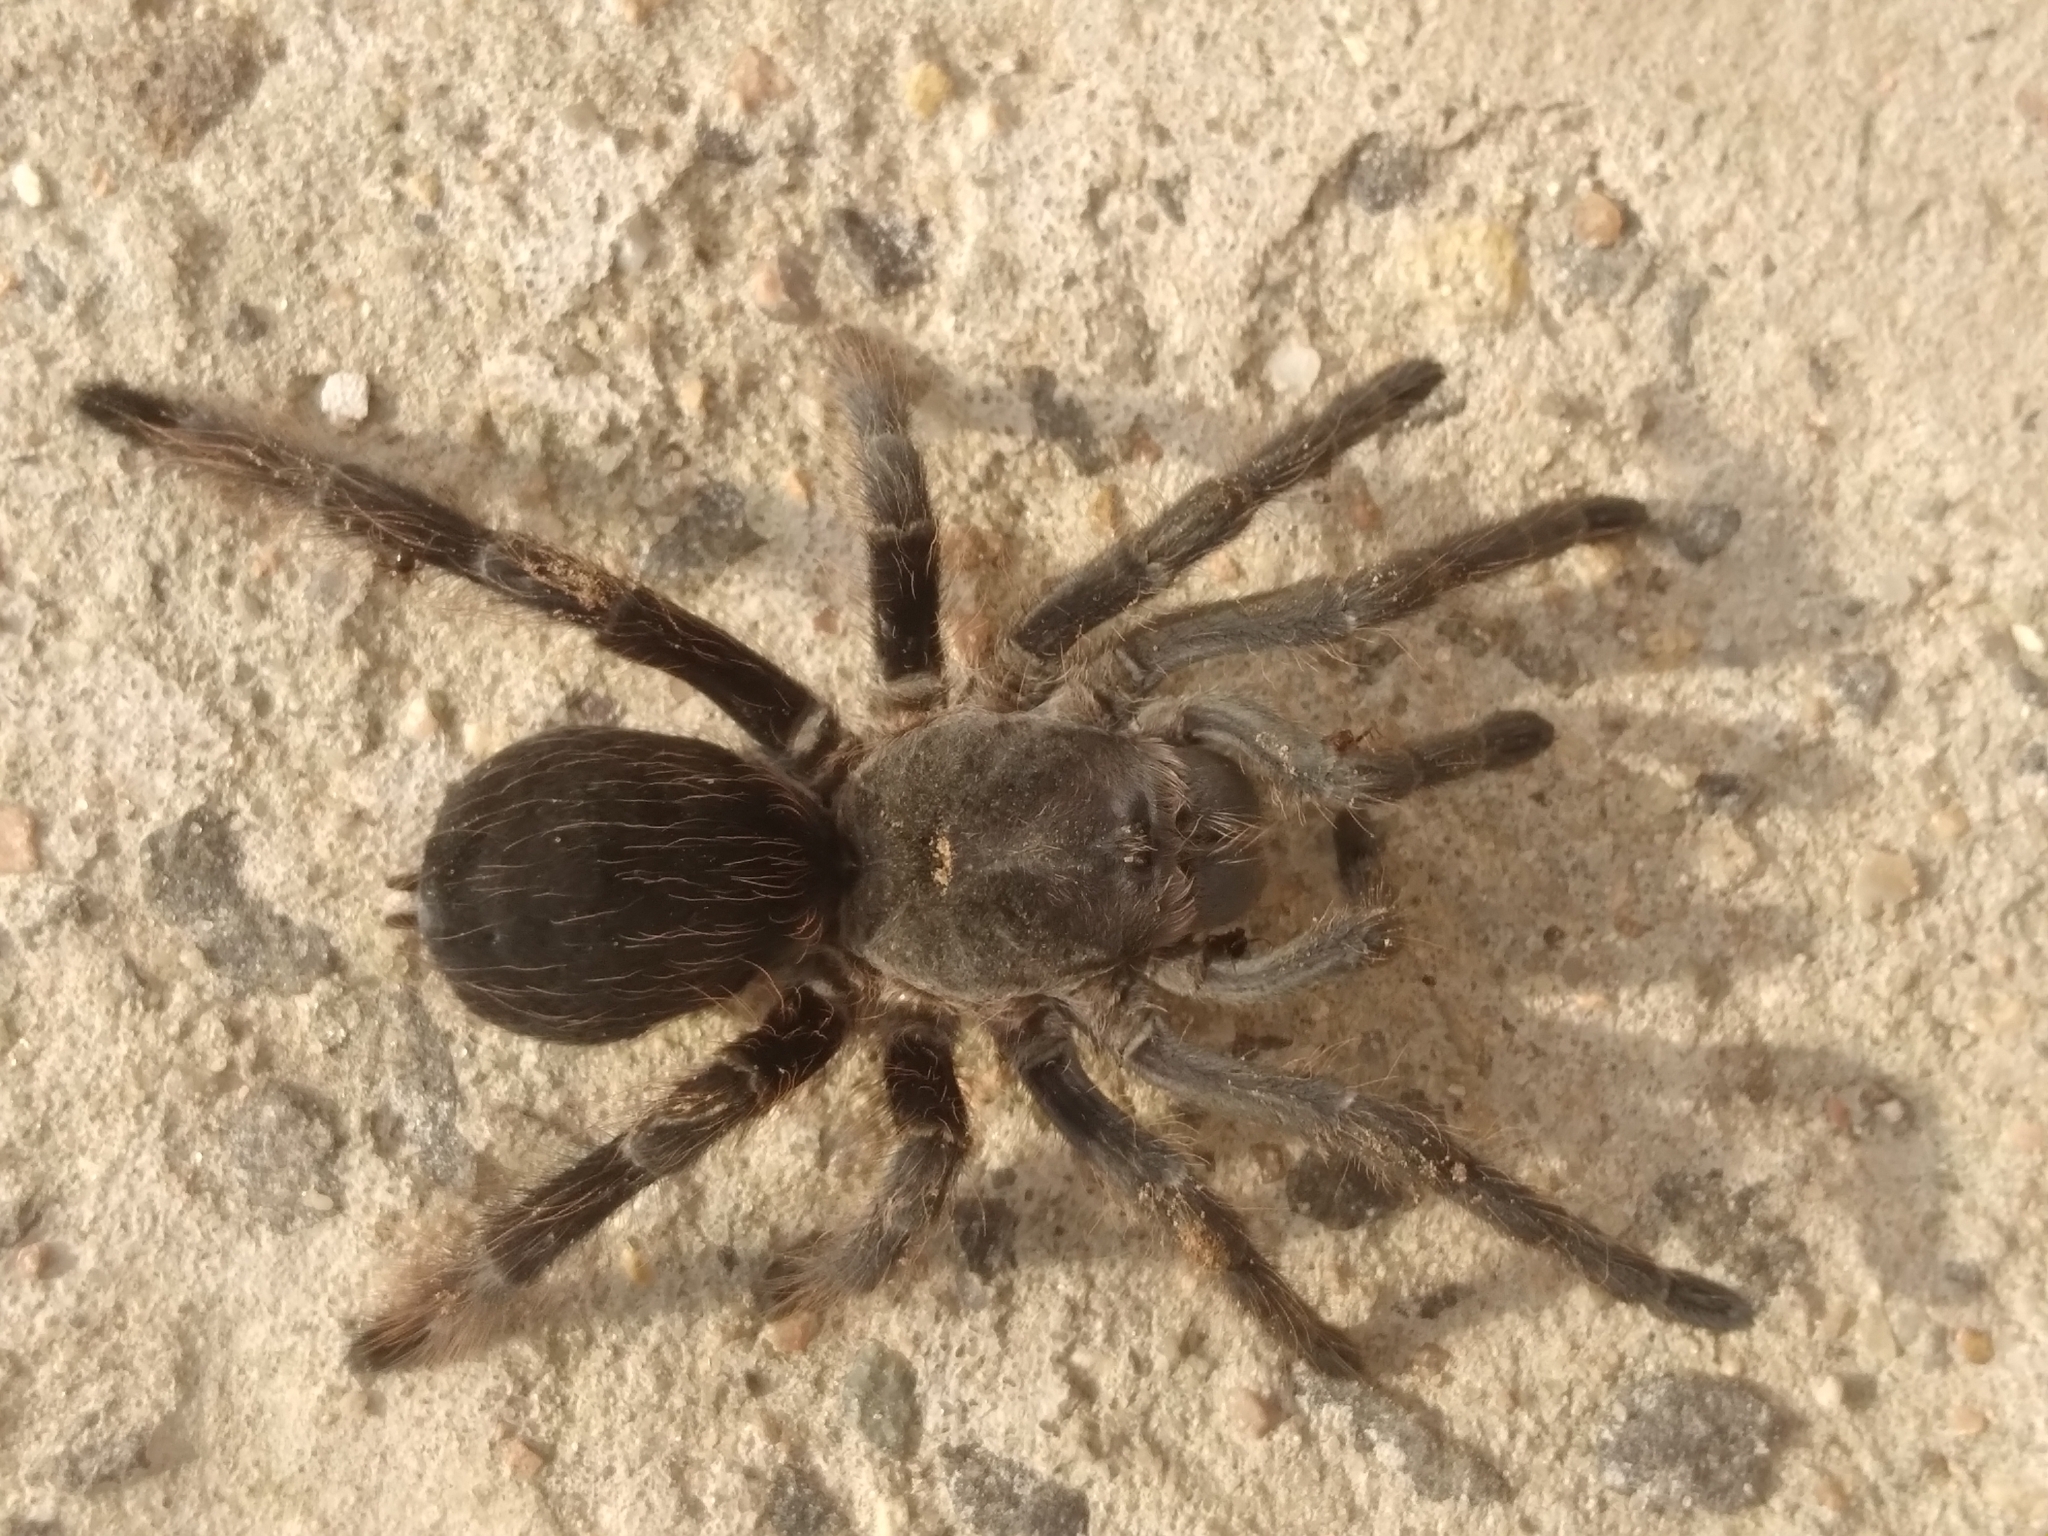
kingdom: Animalia
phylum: Arthropoda
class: Arachnida
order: Araneae
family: Theraphosidae
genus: Eupalaestrus
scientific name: Eupalaestrus weijenberghi
